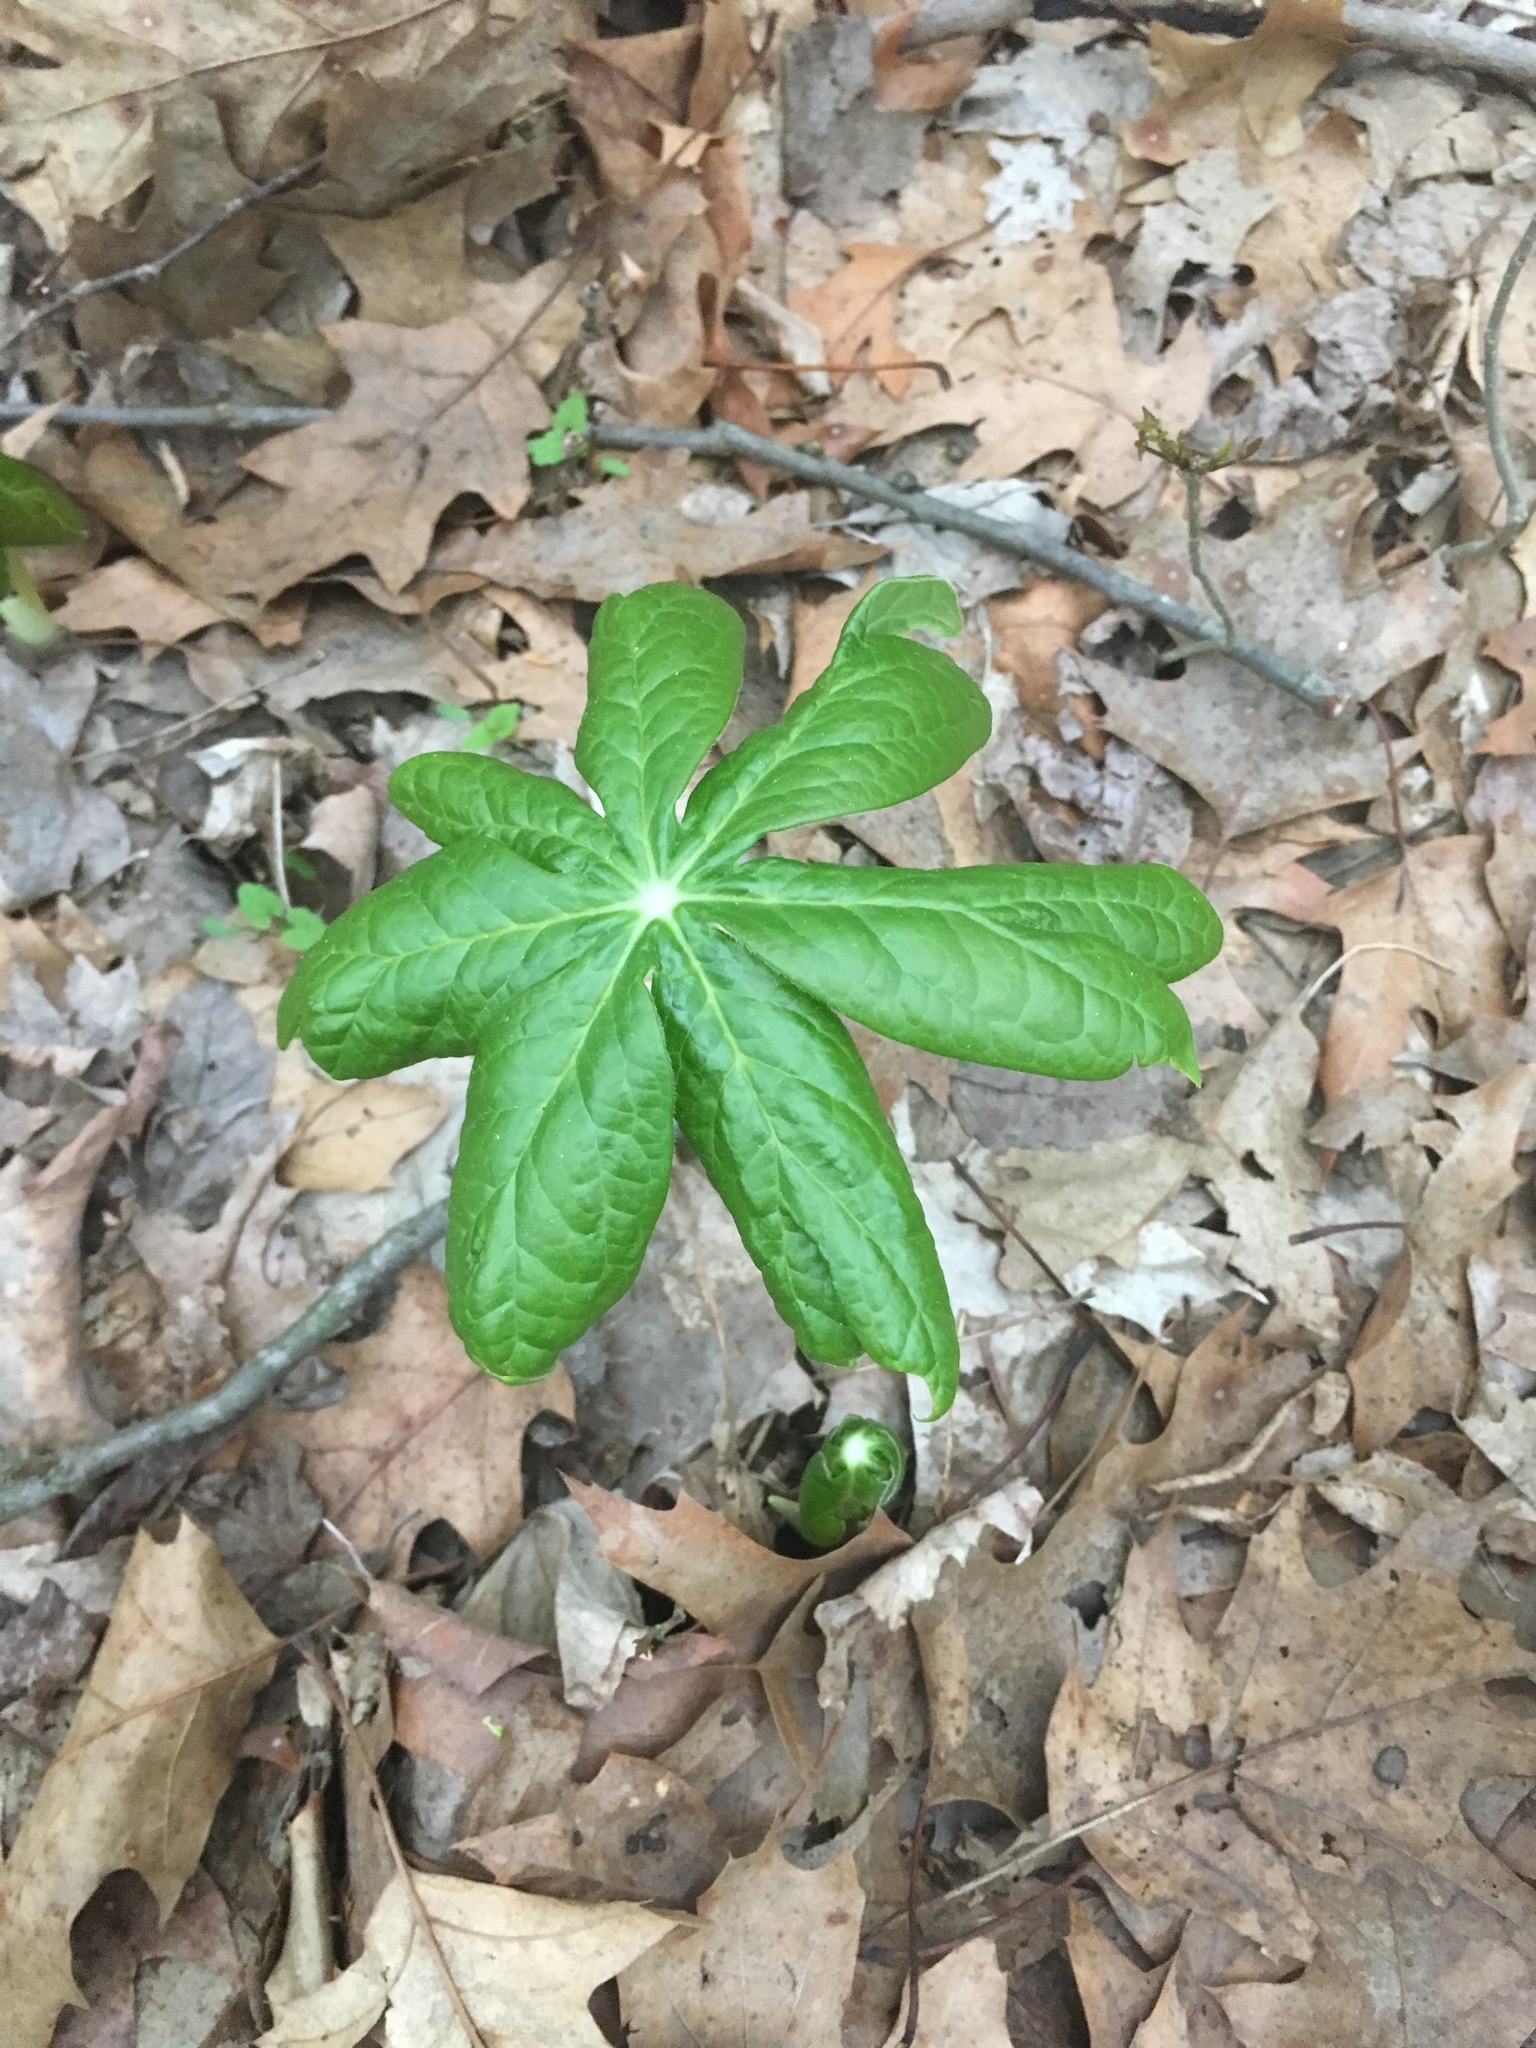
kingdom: Plantae
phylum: Tracheophyta
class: Magnoliopsida
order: Ranunculales
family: Berberidaceae
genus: Podophyllum
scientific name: Podophyllum peltatum
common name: Wild mandrake
